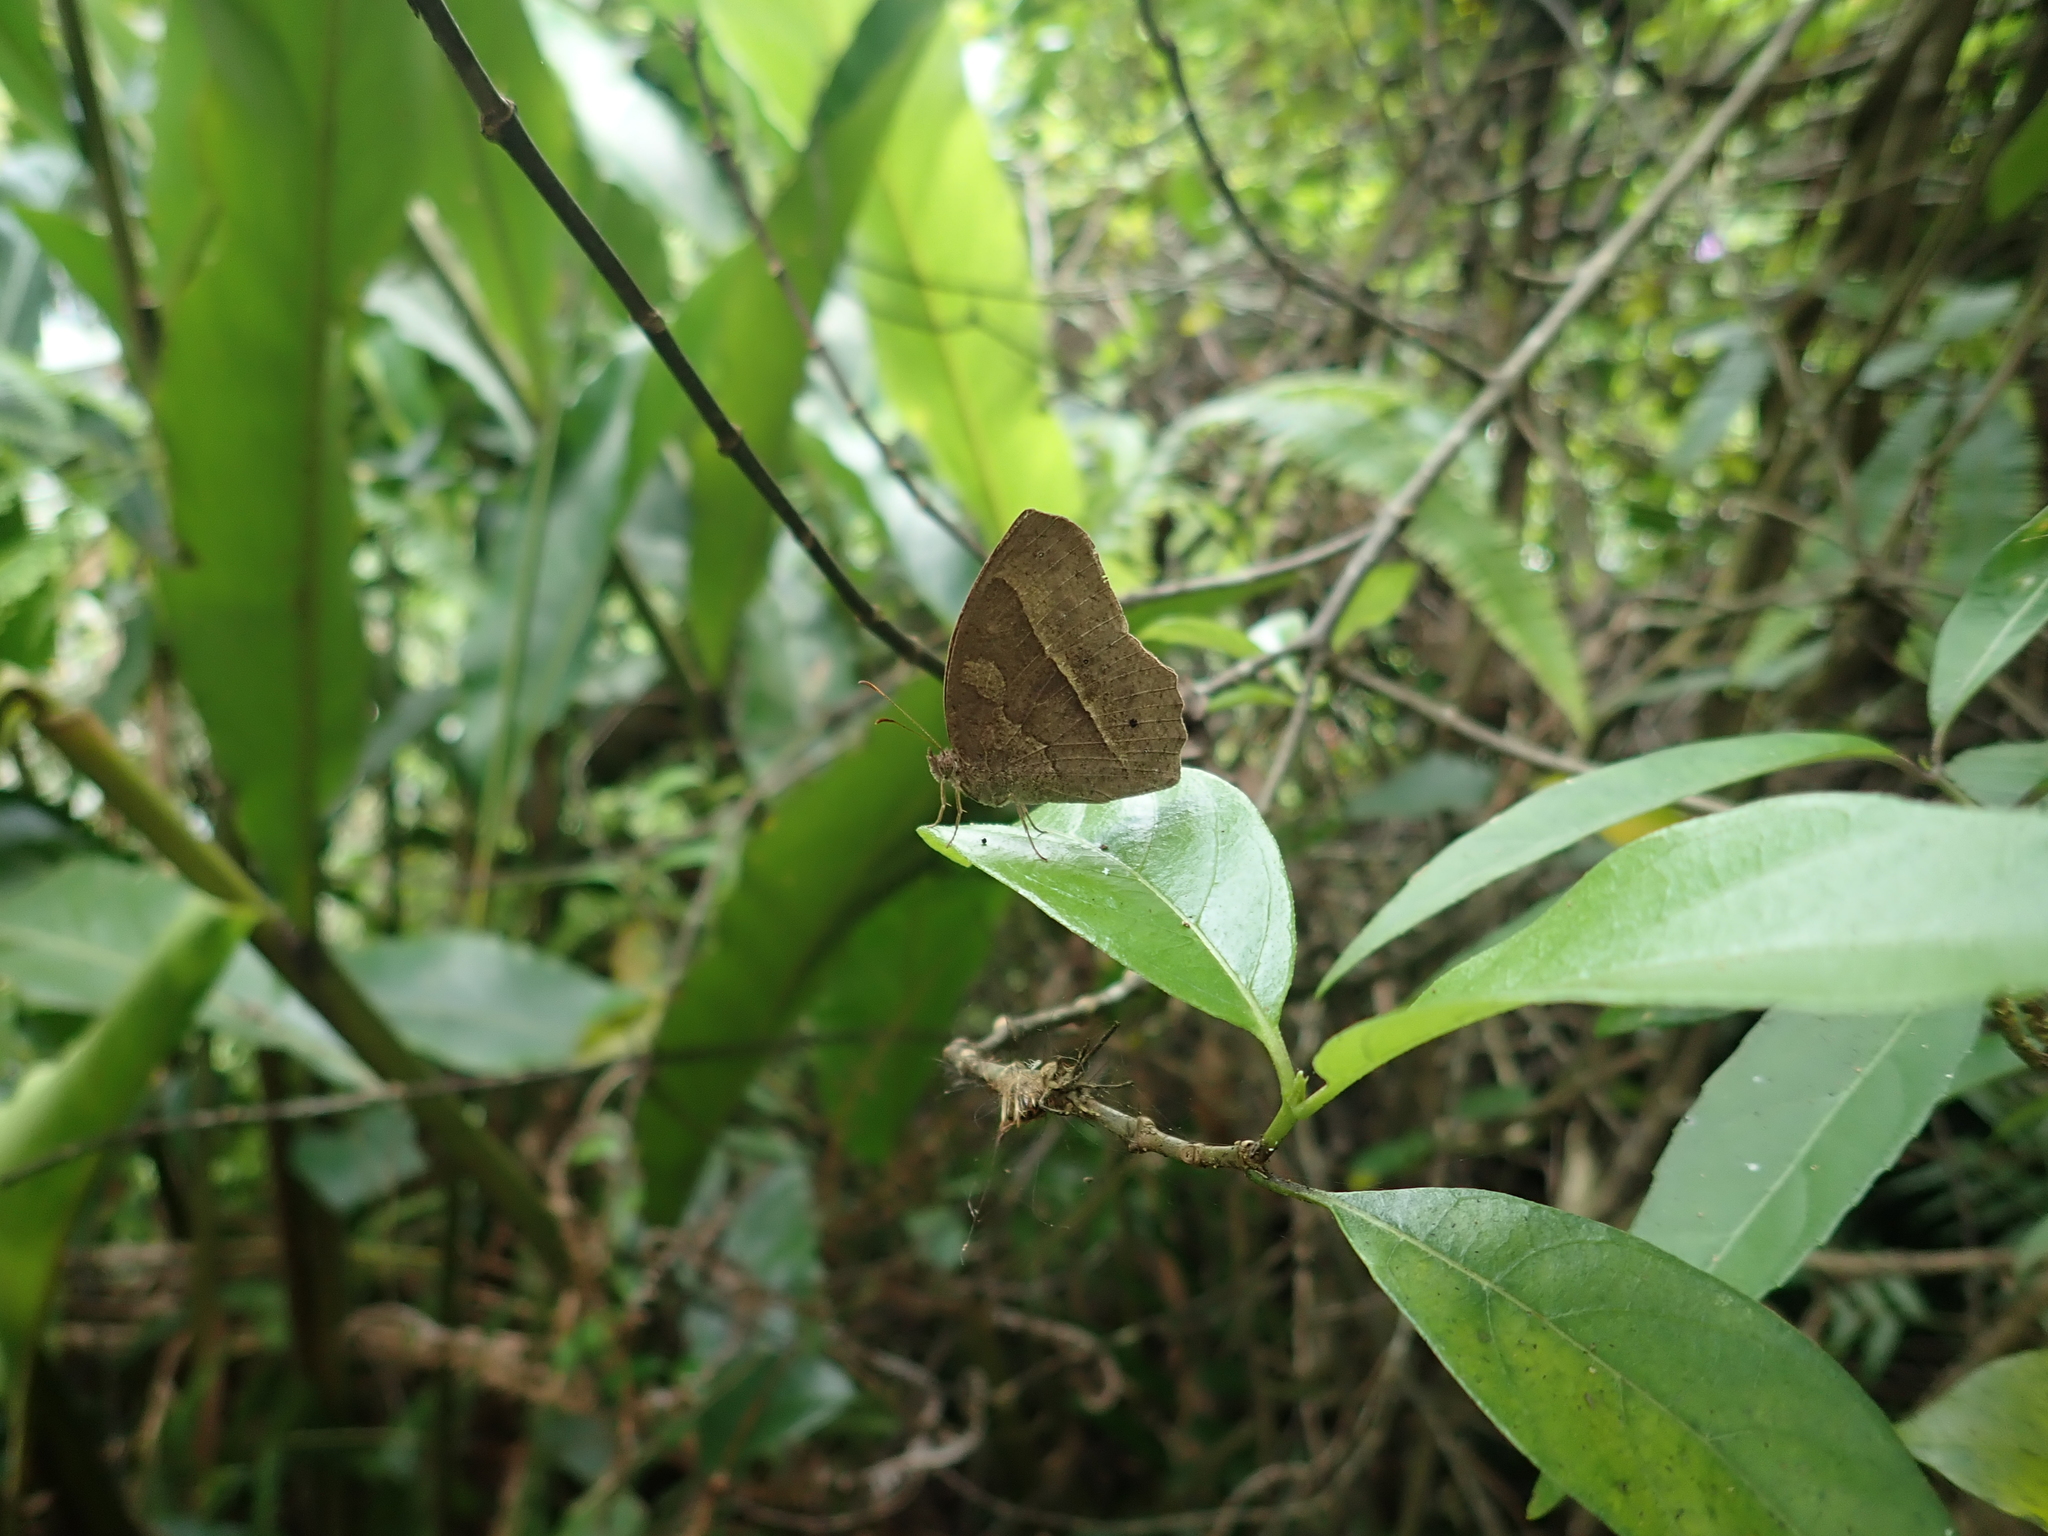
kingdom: Animalia
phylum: Arthropoda
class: Insecta
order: Lepidoptera
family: Nymphalidae
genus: Mycalesis
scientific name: Mycalesis horsfieldii
